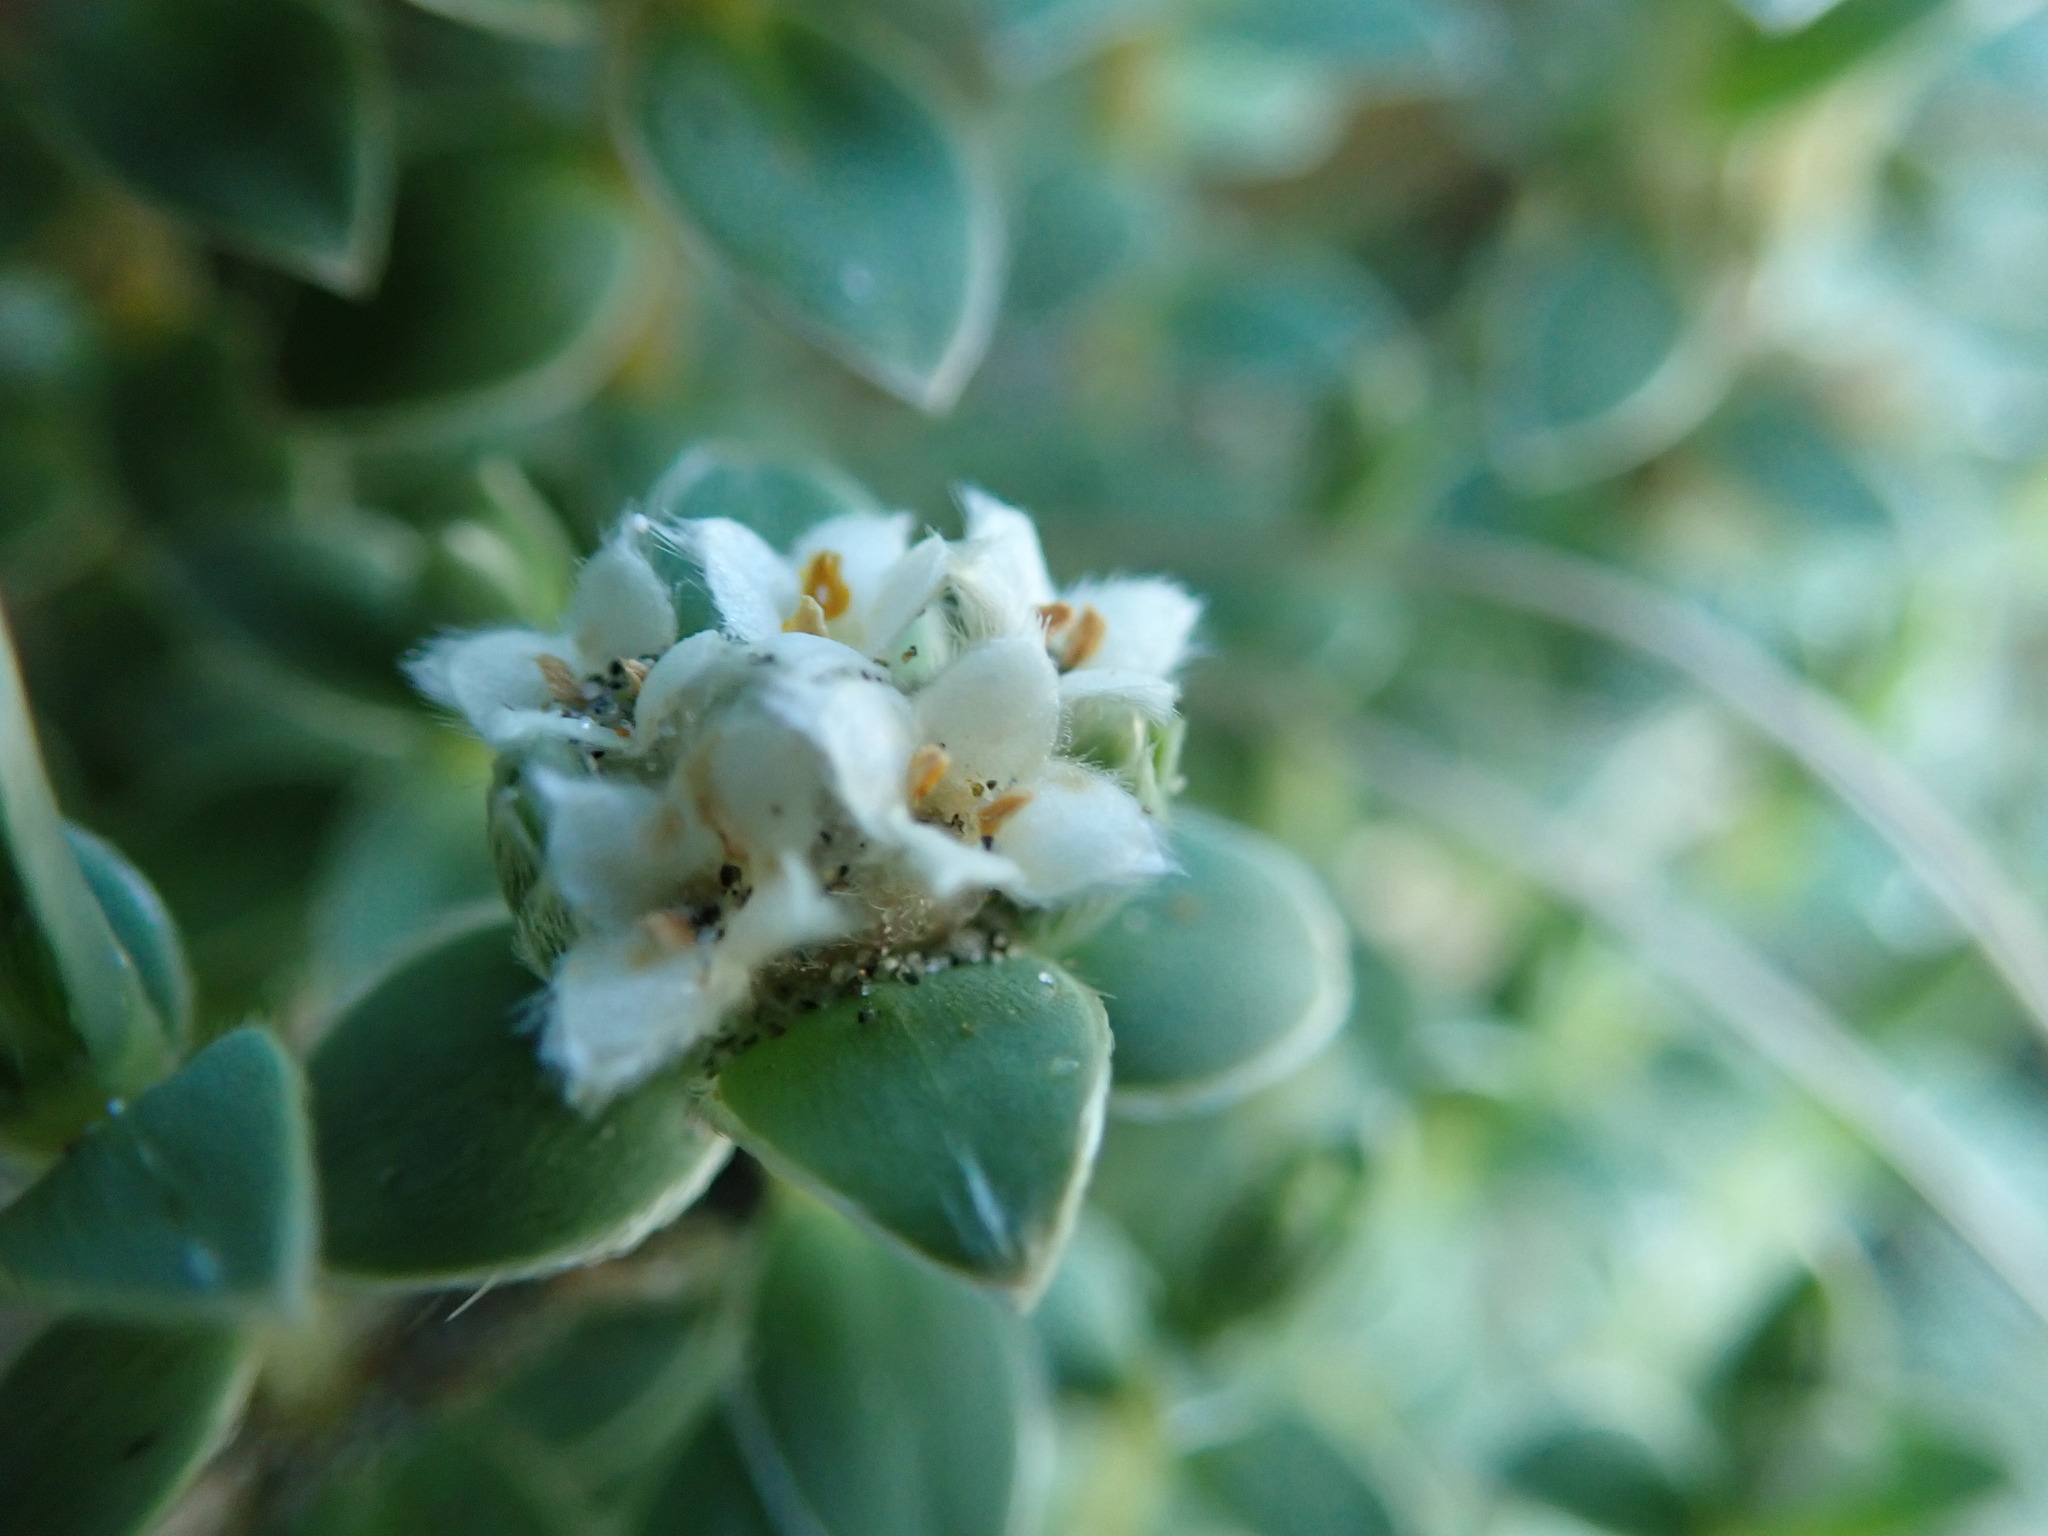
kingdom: Plantae
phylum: Tracheophyta
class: Magnoliopsida
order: Malvales
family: Thymelaeaceae
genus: Pimelea
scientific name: Pimelea villosa
